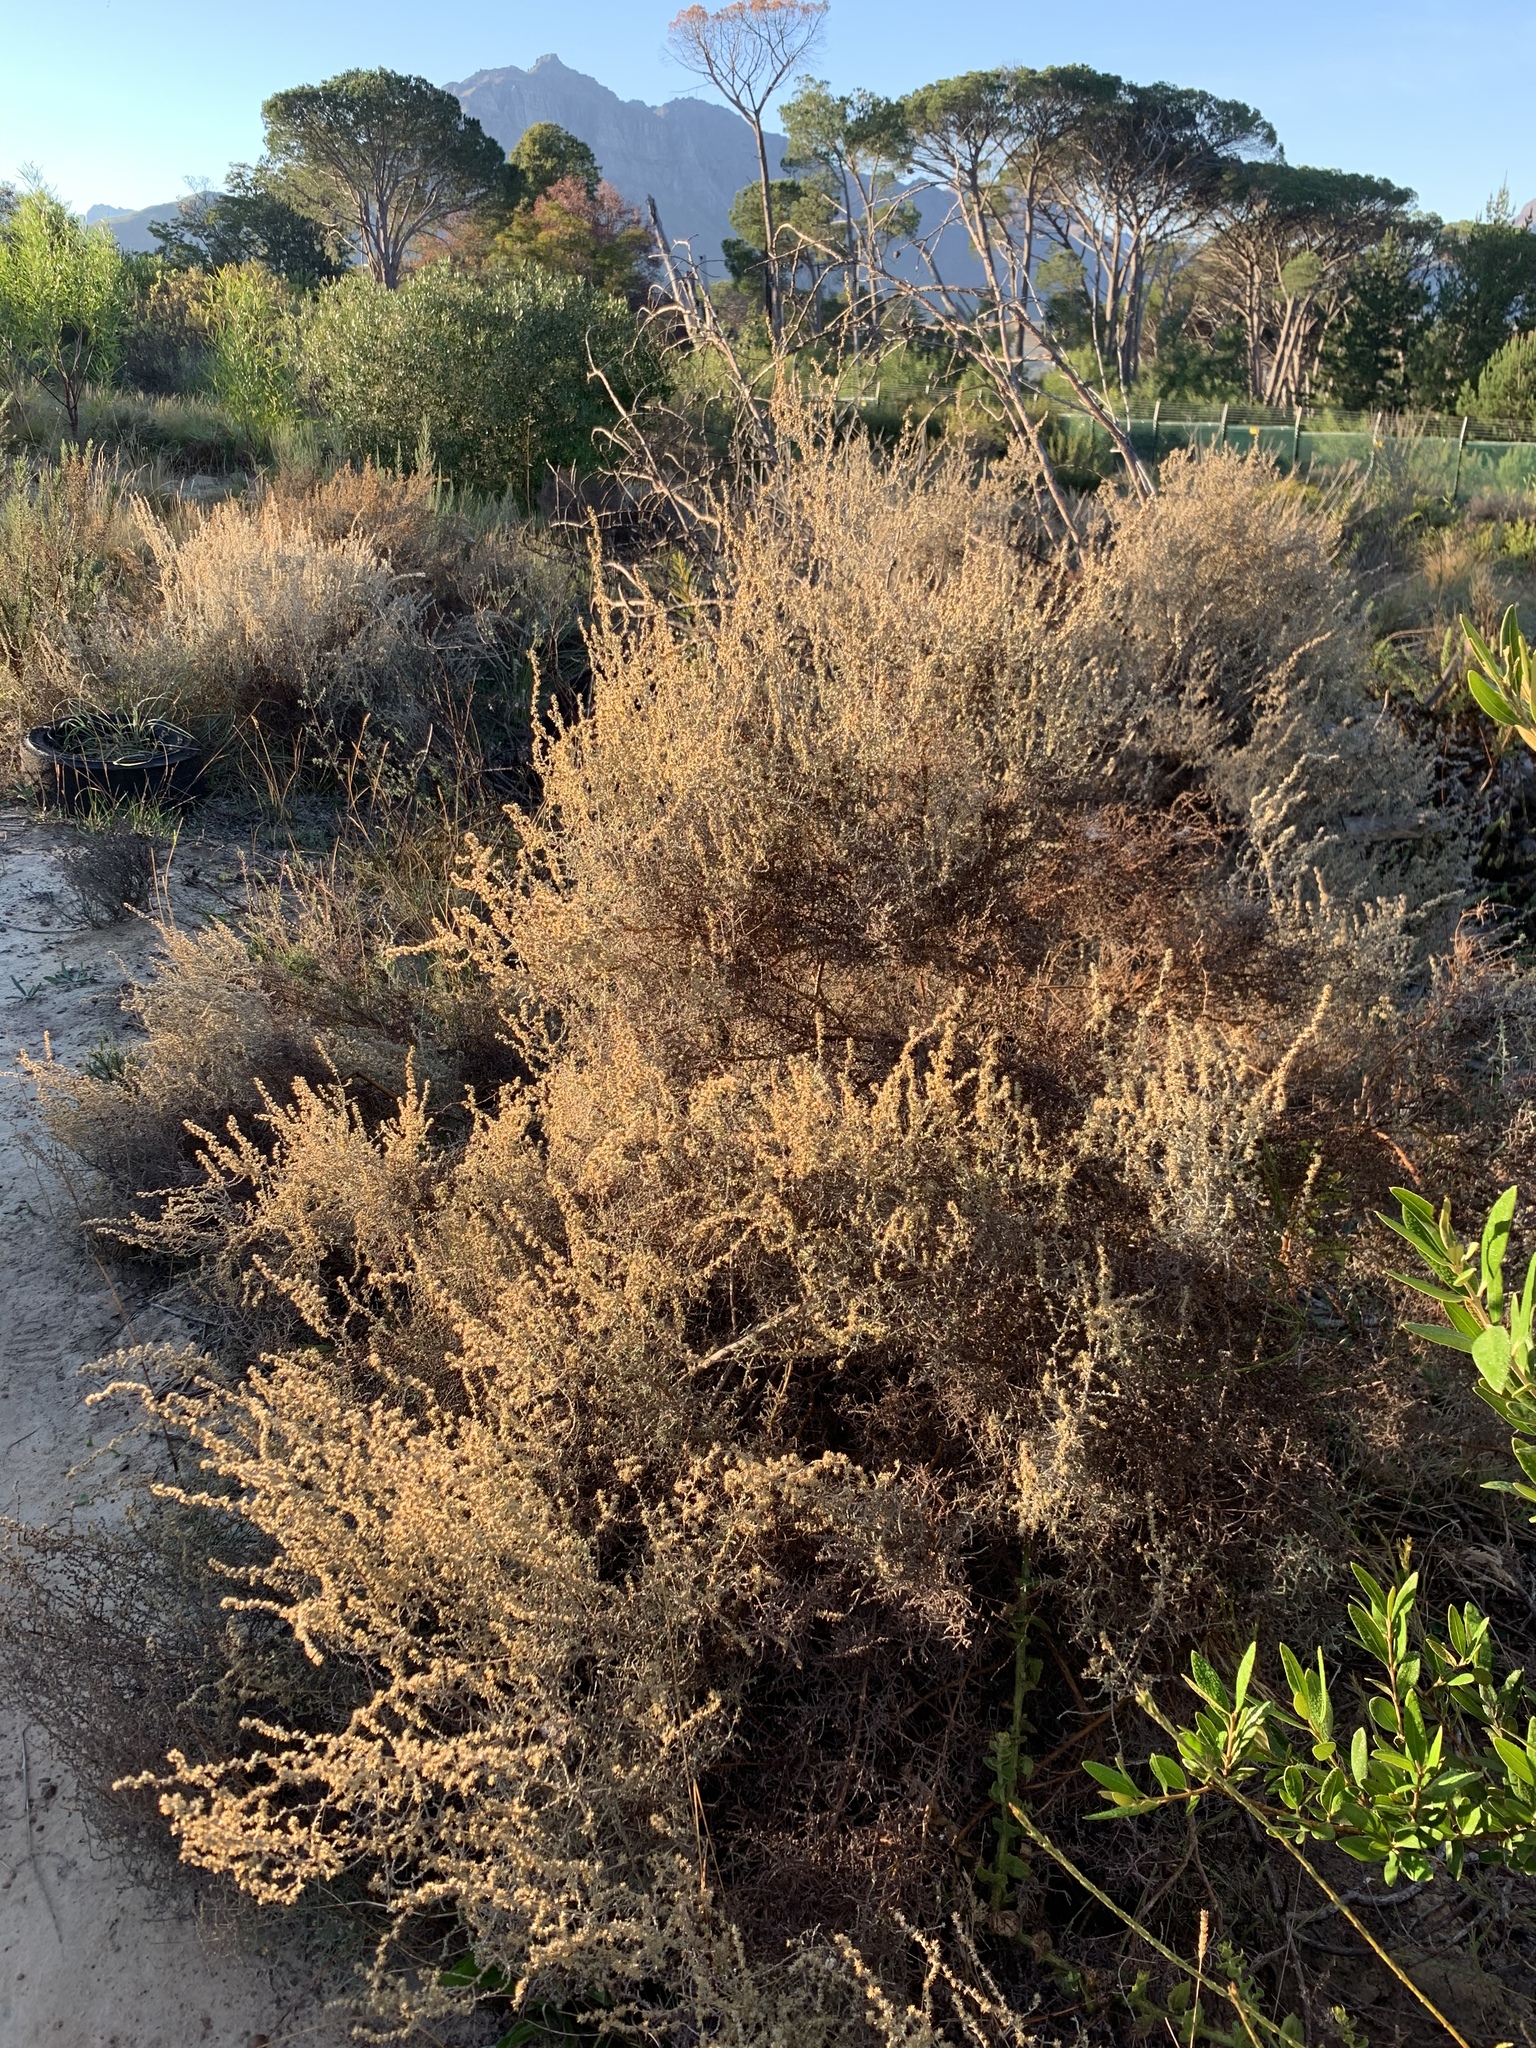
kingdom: Plantae
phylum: Tracheophyta
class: Magnoliopsida
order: Asterales
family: Asteraceae
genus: Seriphium
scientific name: Seriphium plumosum
